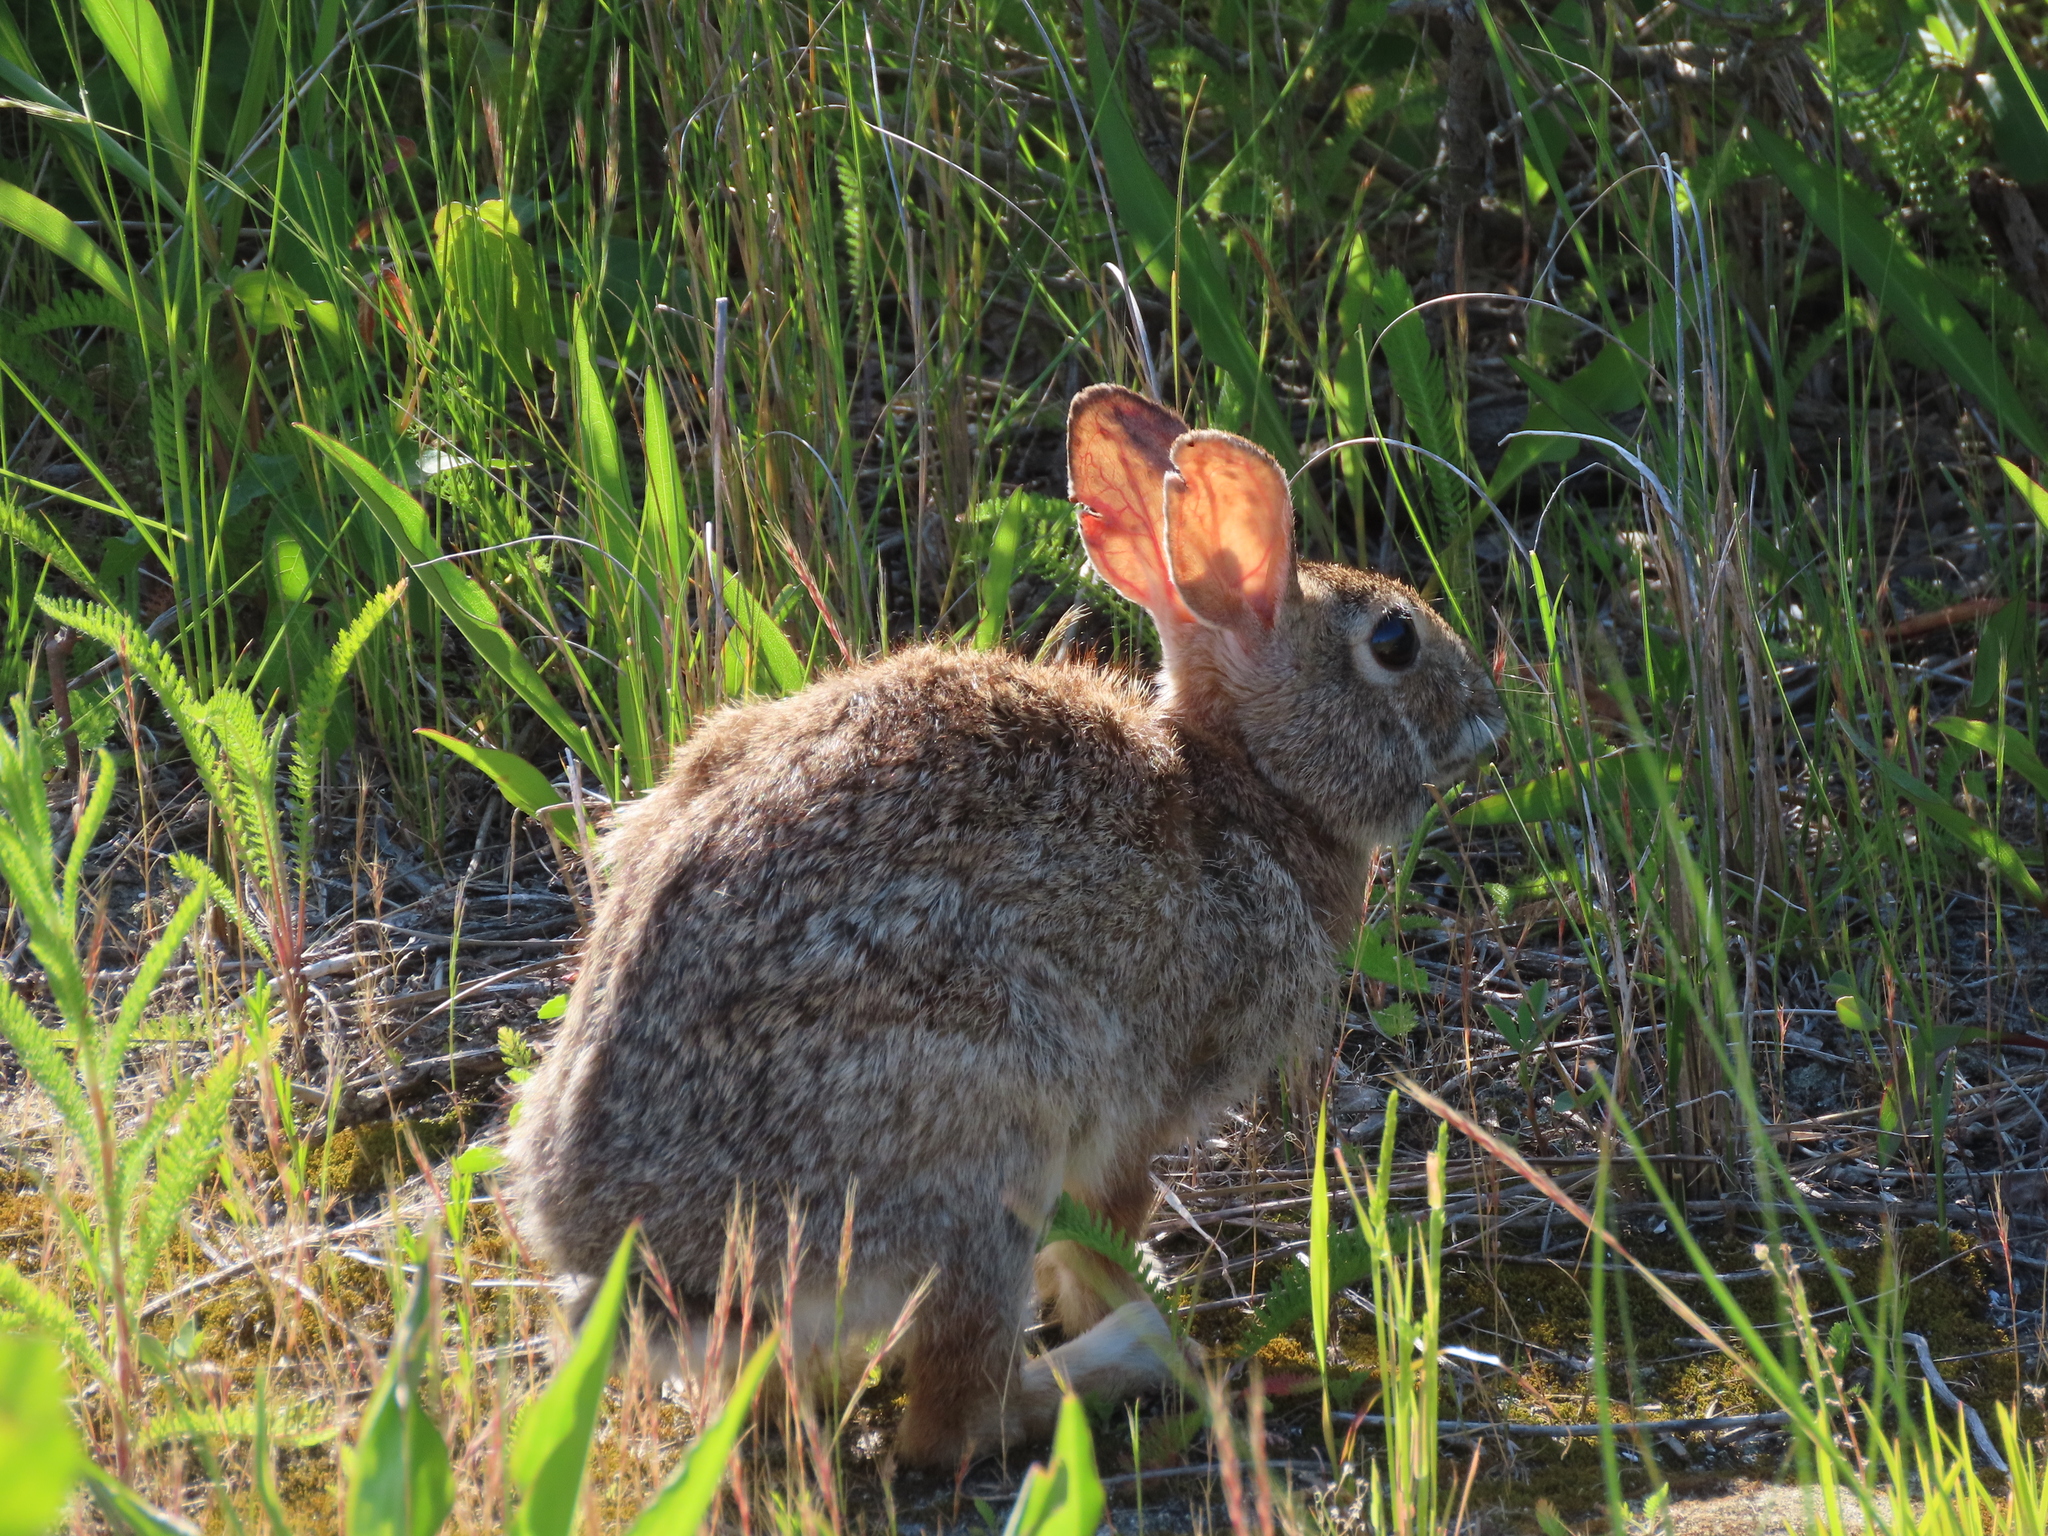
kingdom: Animalia
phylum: Chordata
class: Mammalia
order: Lagomorpha
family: Leporidae
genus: Sylvilagus
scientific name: Sylvilagus floridanus
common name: Eastern cottontail
